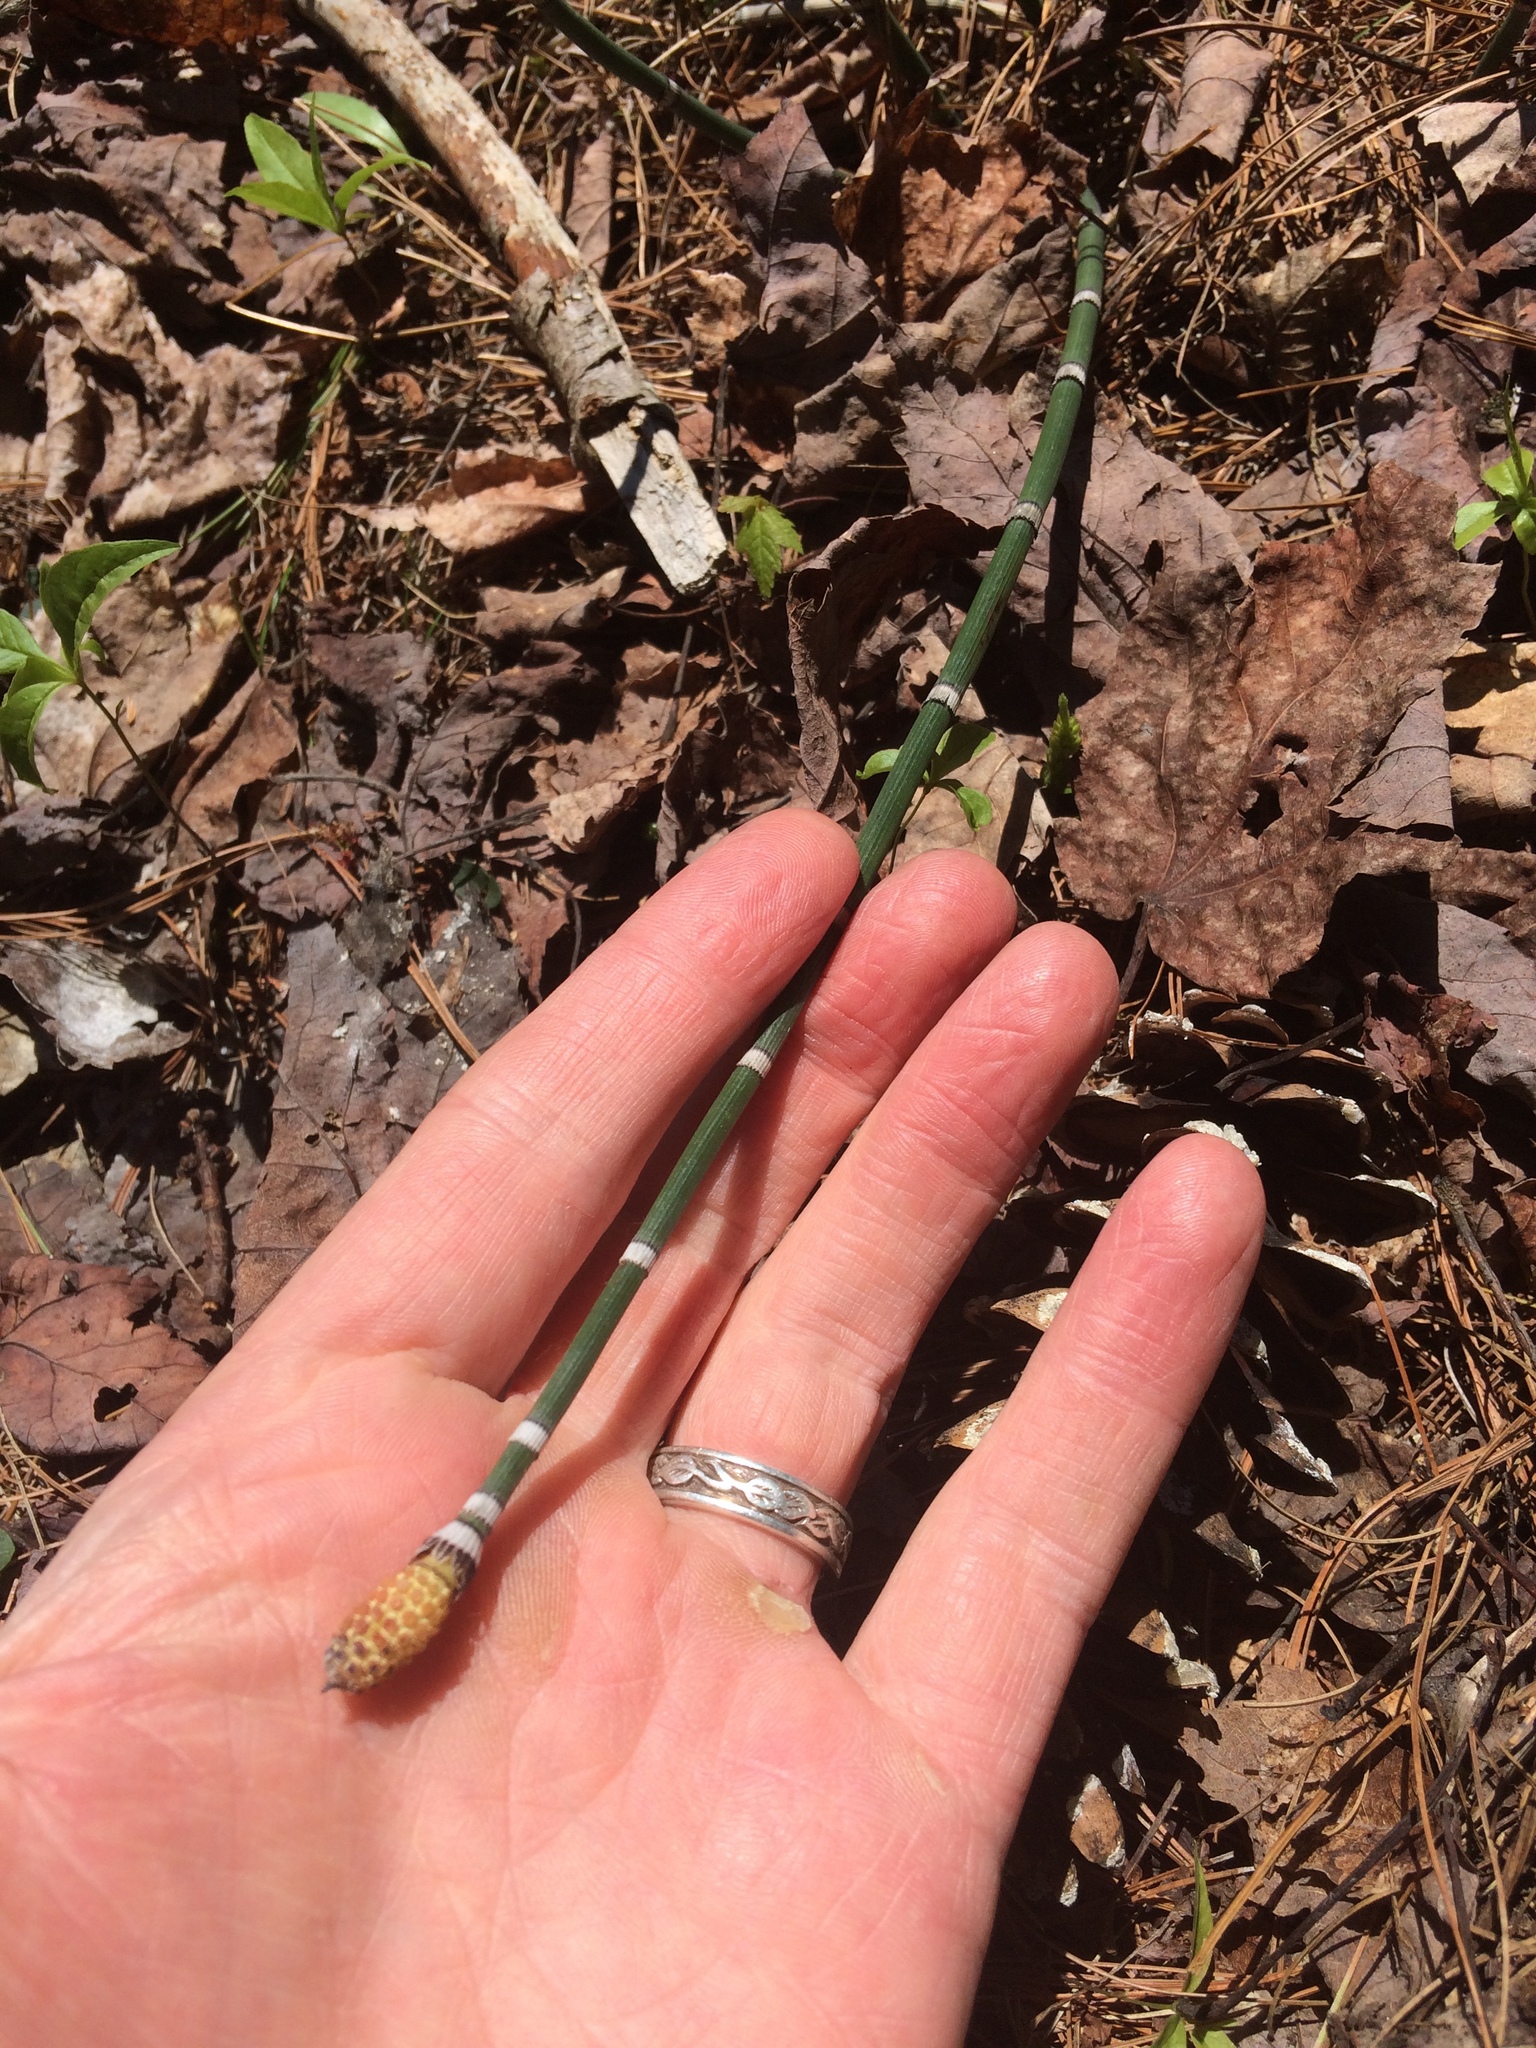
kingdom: Plantae
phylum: Tracheophyta
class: Polypodiopsida
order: Equisetales
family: Equisetaceae
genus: Equisetum
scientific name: Equisetum hyemale
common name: Rough horsetail
